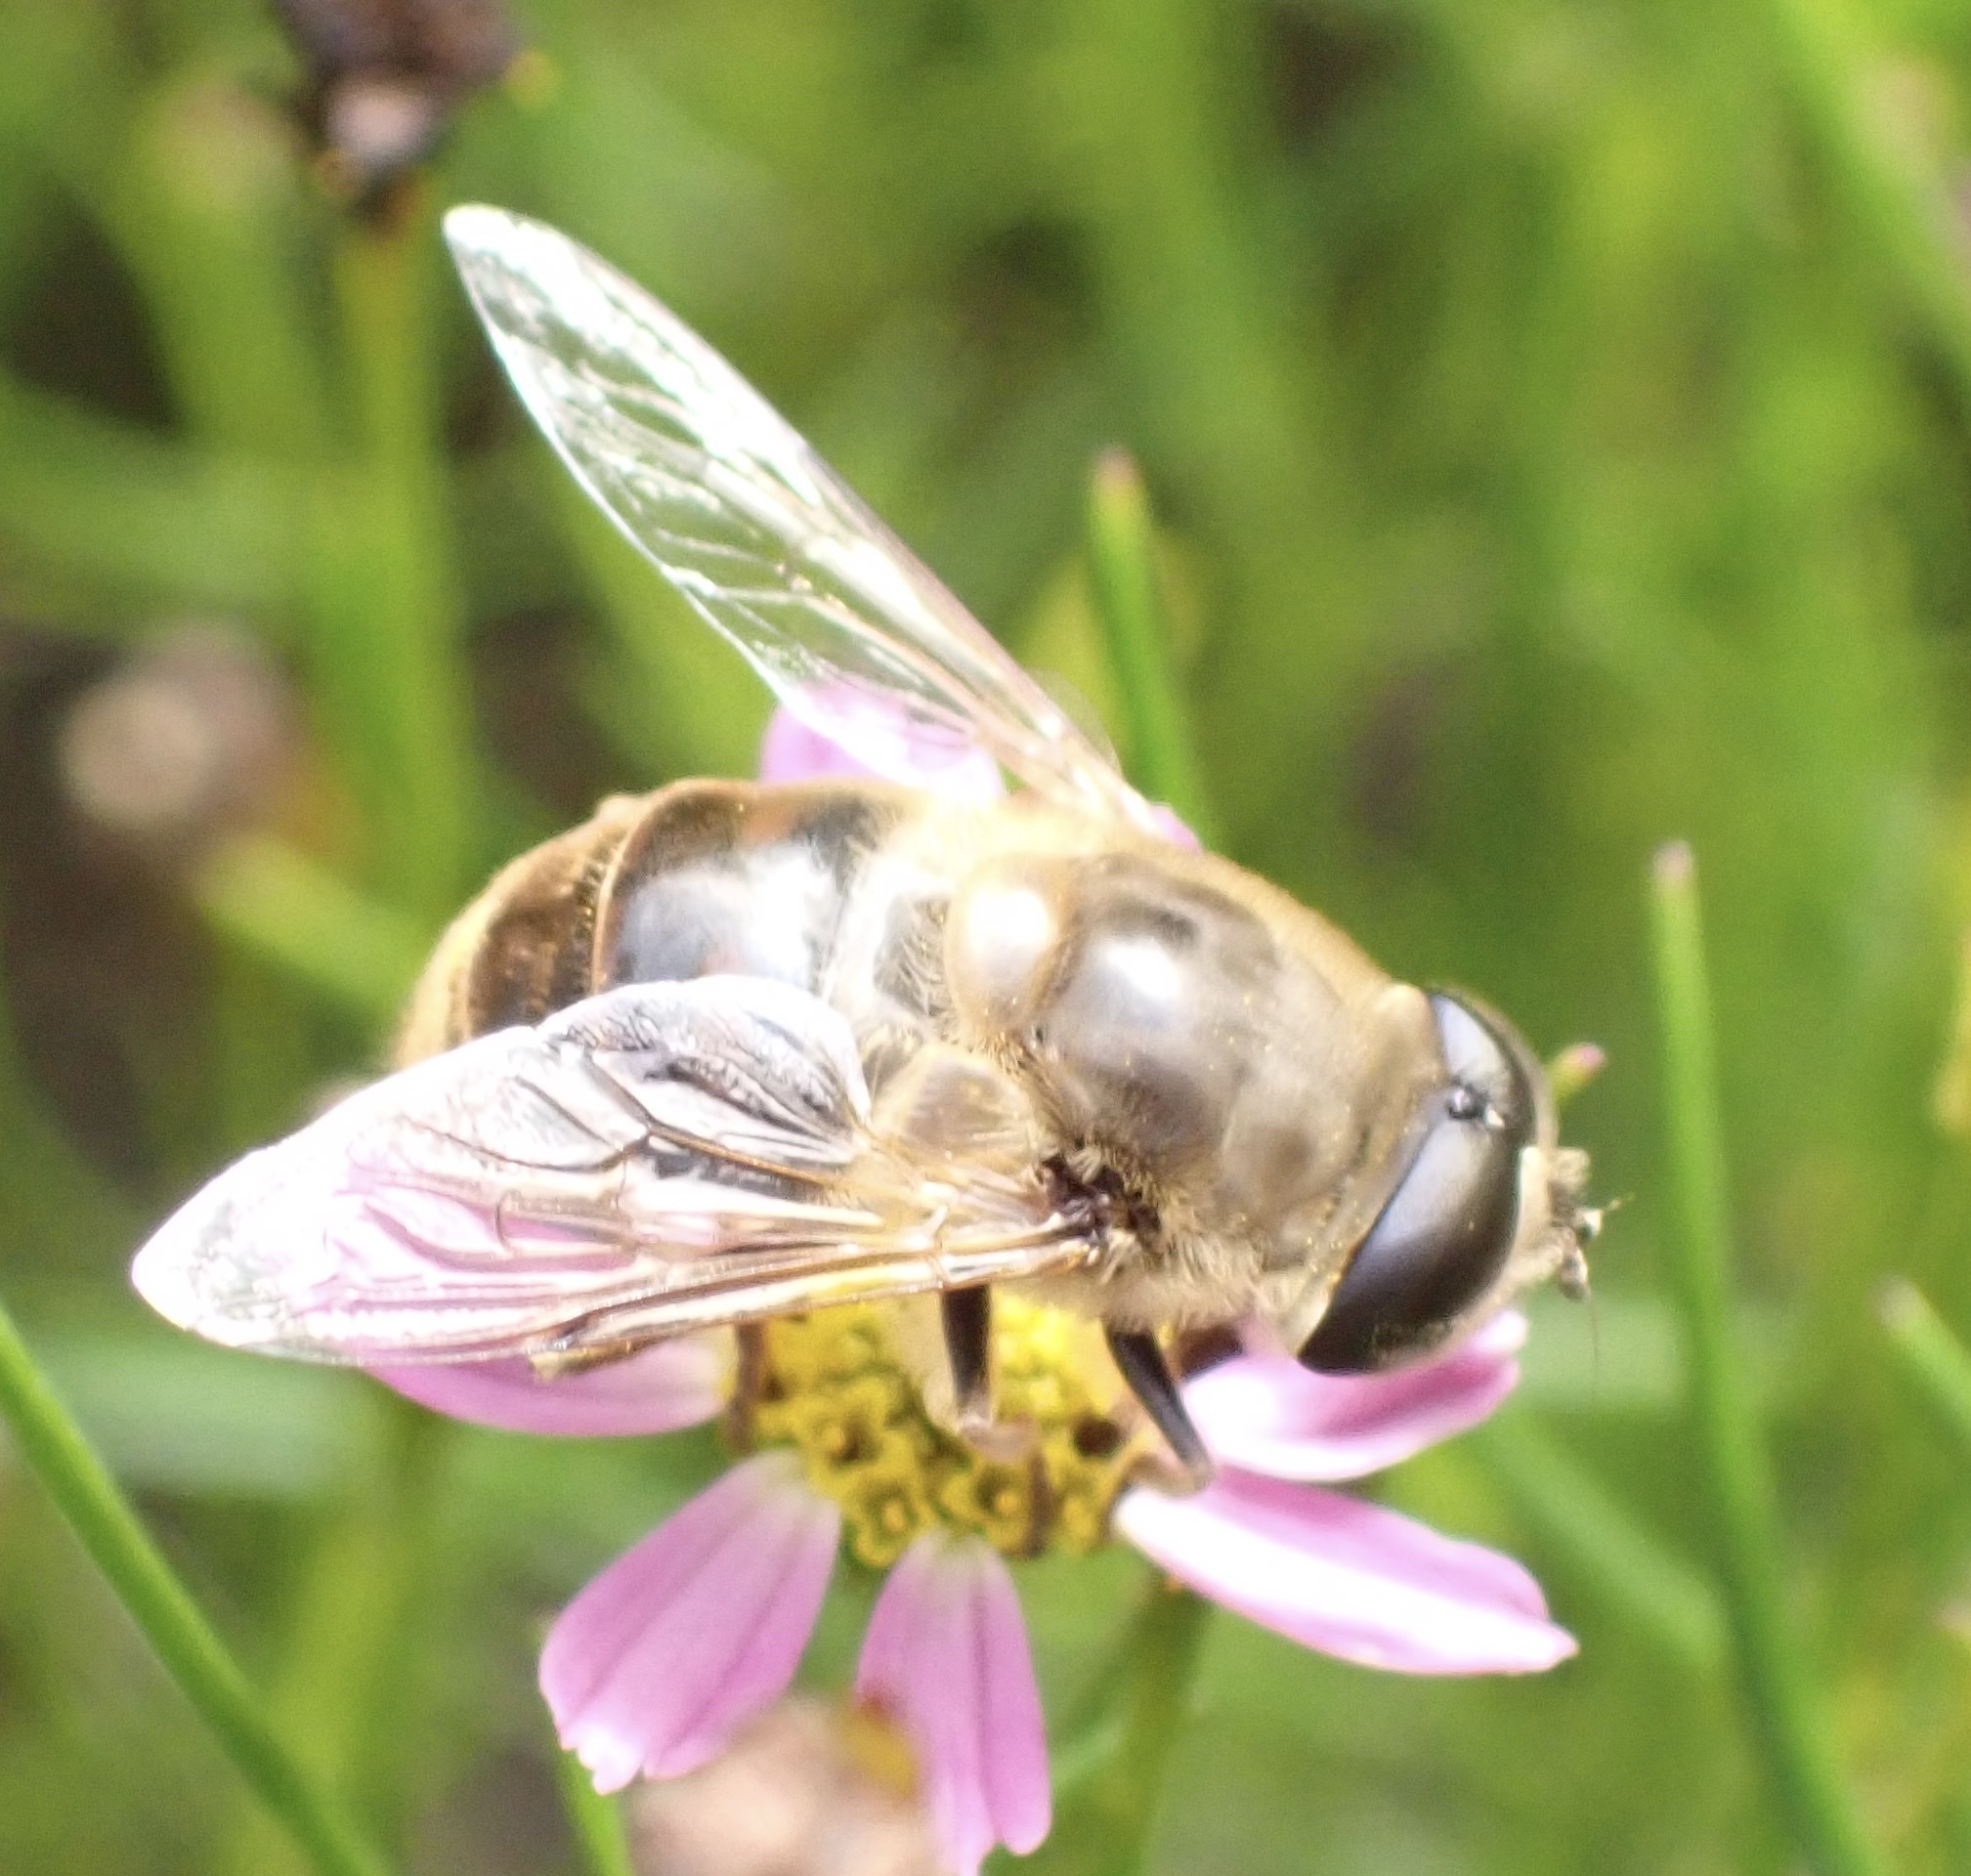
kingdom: Animalia
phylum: Arthropoda
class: Insecta
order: Diptera
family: Syrphidae
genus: Eristalis
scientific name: Eristalis tenax
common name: Drone fly
